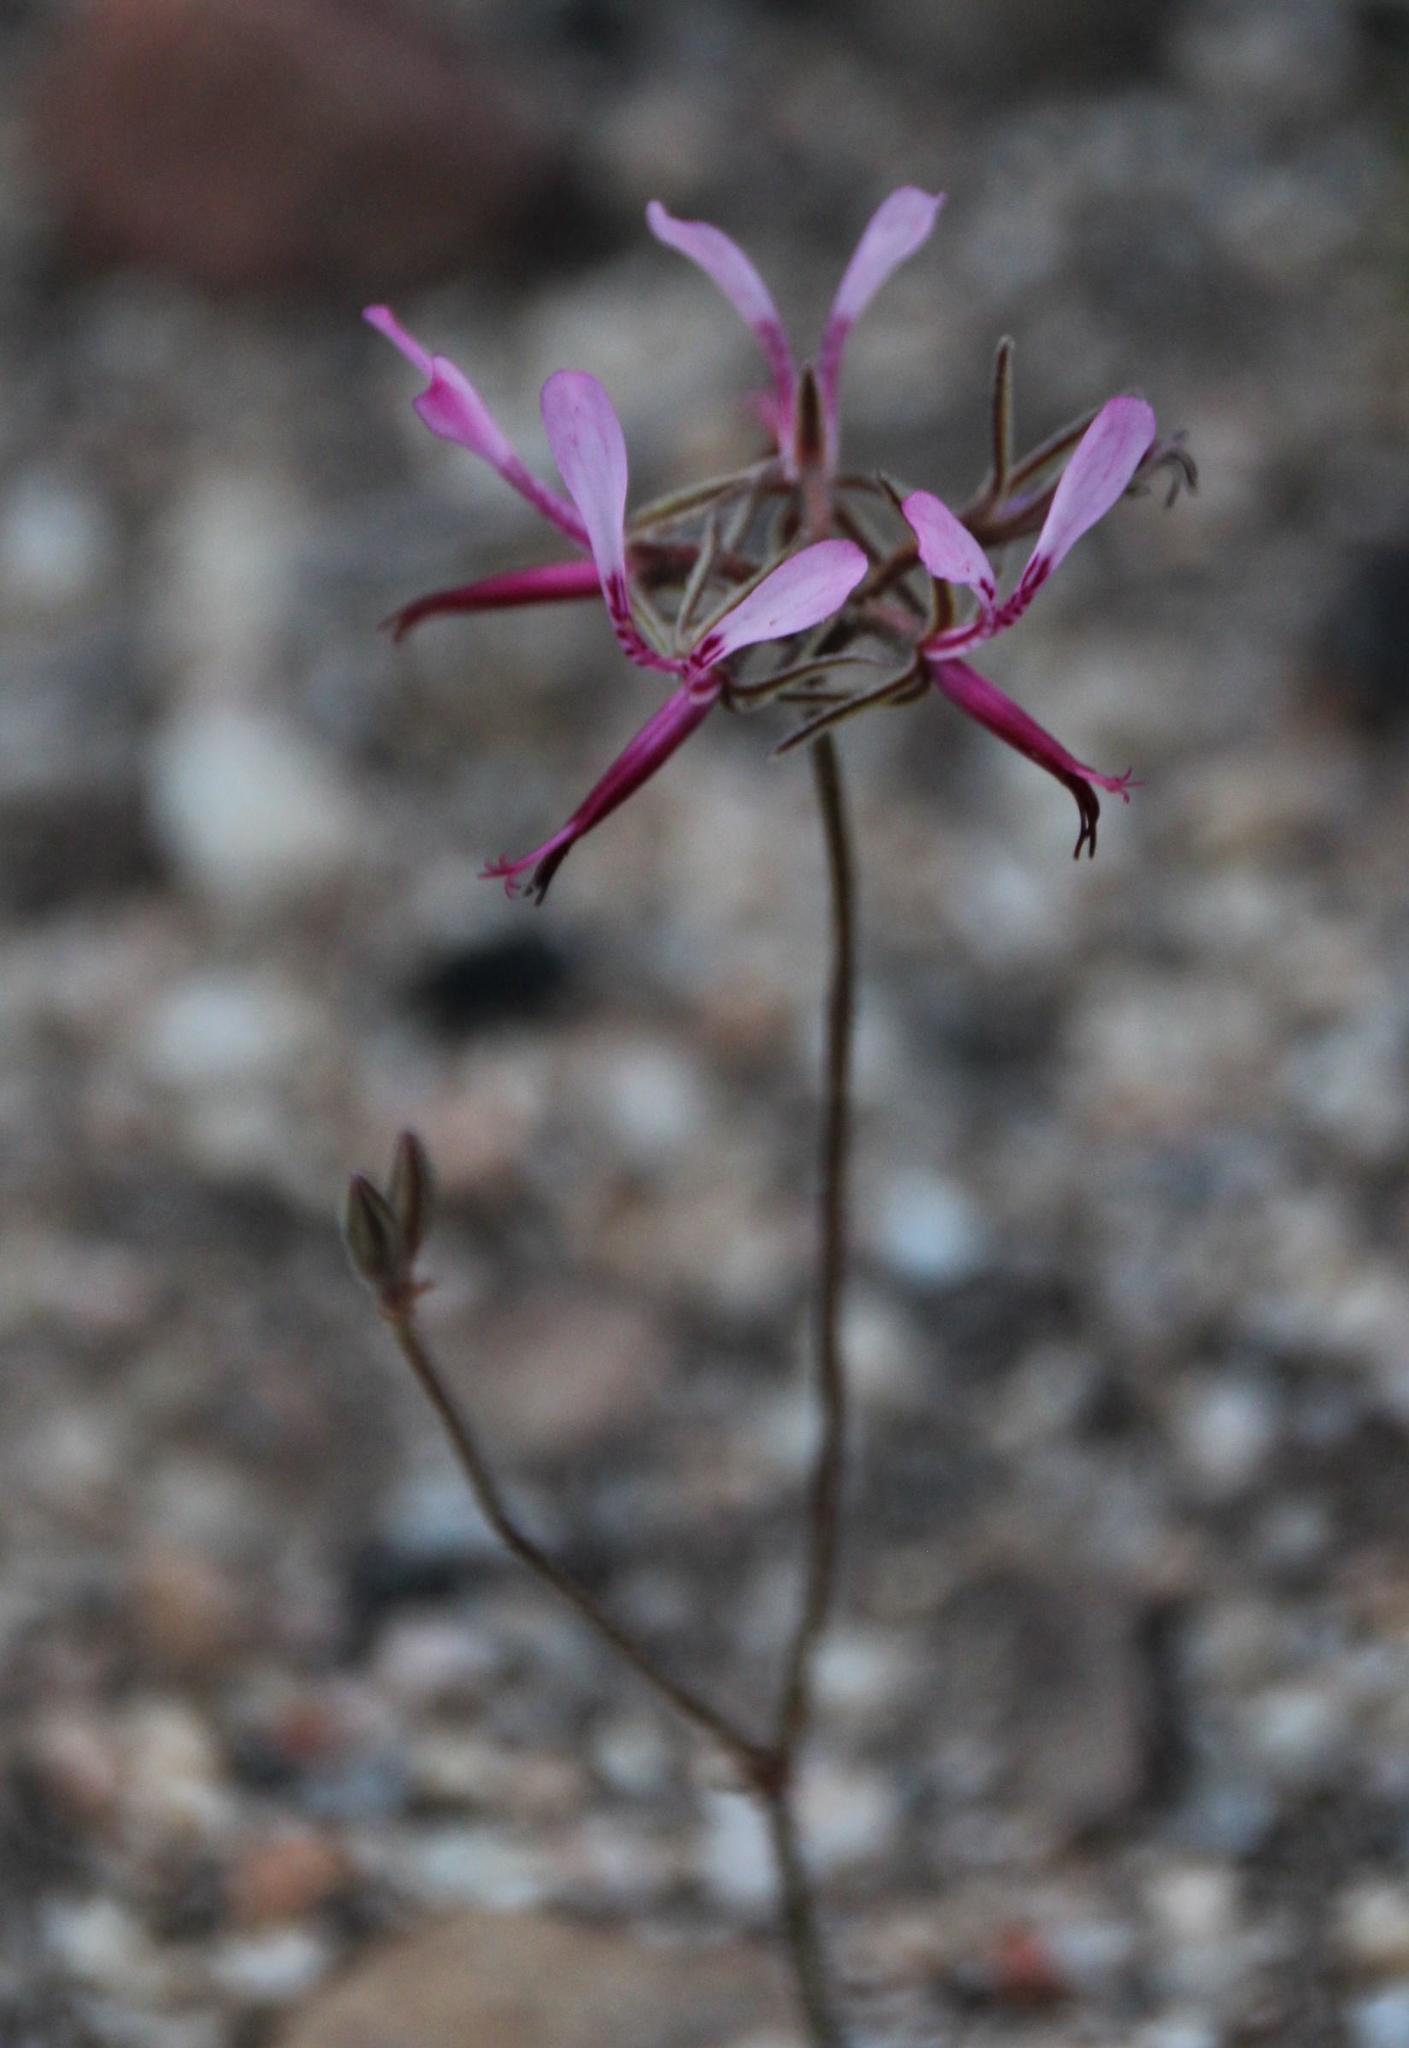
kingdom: Plantae
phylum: Tracheophyta
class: Magnoliopsida
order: Geraniales
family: Geraniaceae
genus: Pelargonium
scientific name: Pelargonium ternifolium
